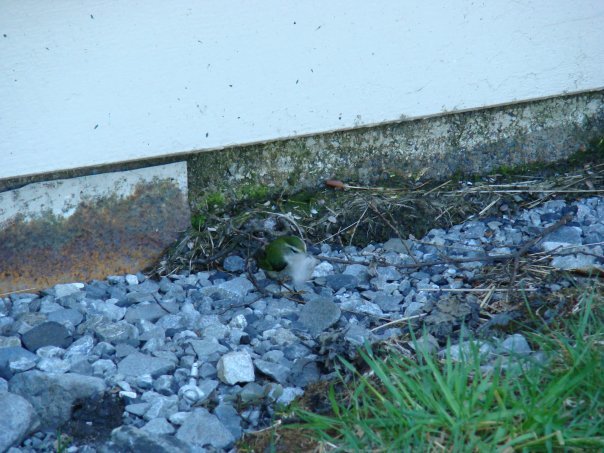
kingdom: Animalia
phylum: Chordata
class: Aves
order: Passeriformes
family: Acanthisittidae
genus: Xenicus
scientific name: Xenicus gilviventris
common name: New zealand rockwren
